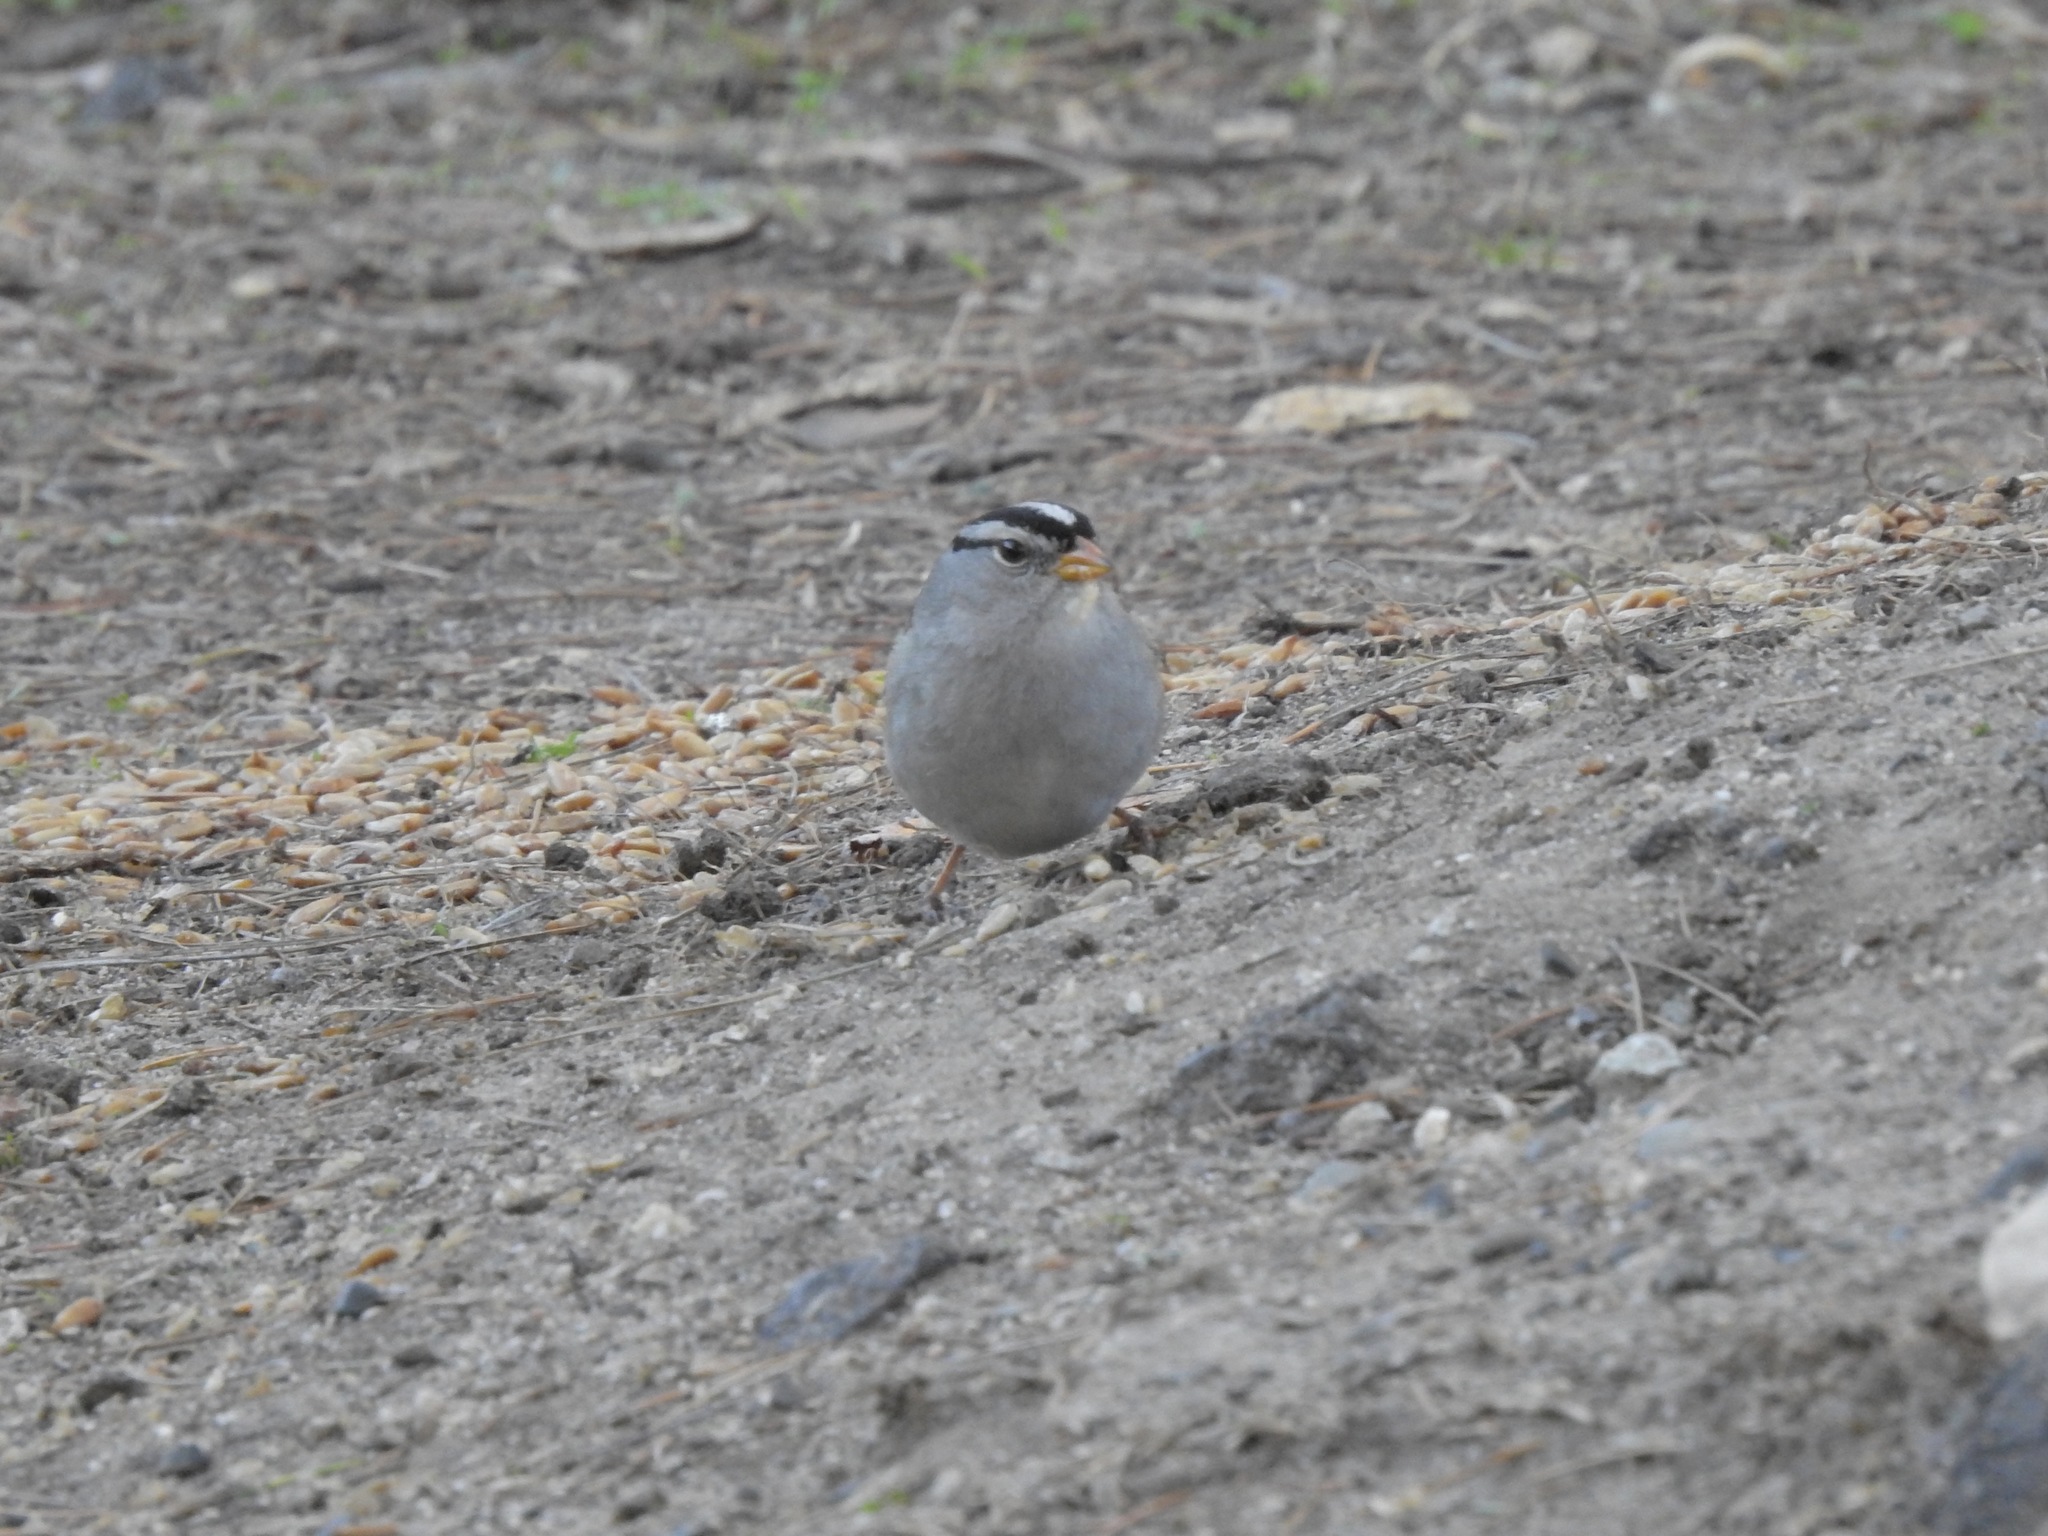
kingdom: Animalia
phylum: Chordata
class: Aves
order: Passeriformes
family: Passerellidae
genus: Zonotrichia
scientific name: Zonotrichia leucophrys
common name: White-crowned sparrow
